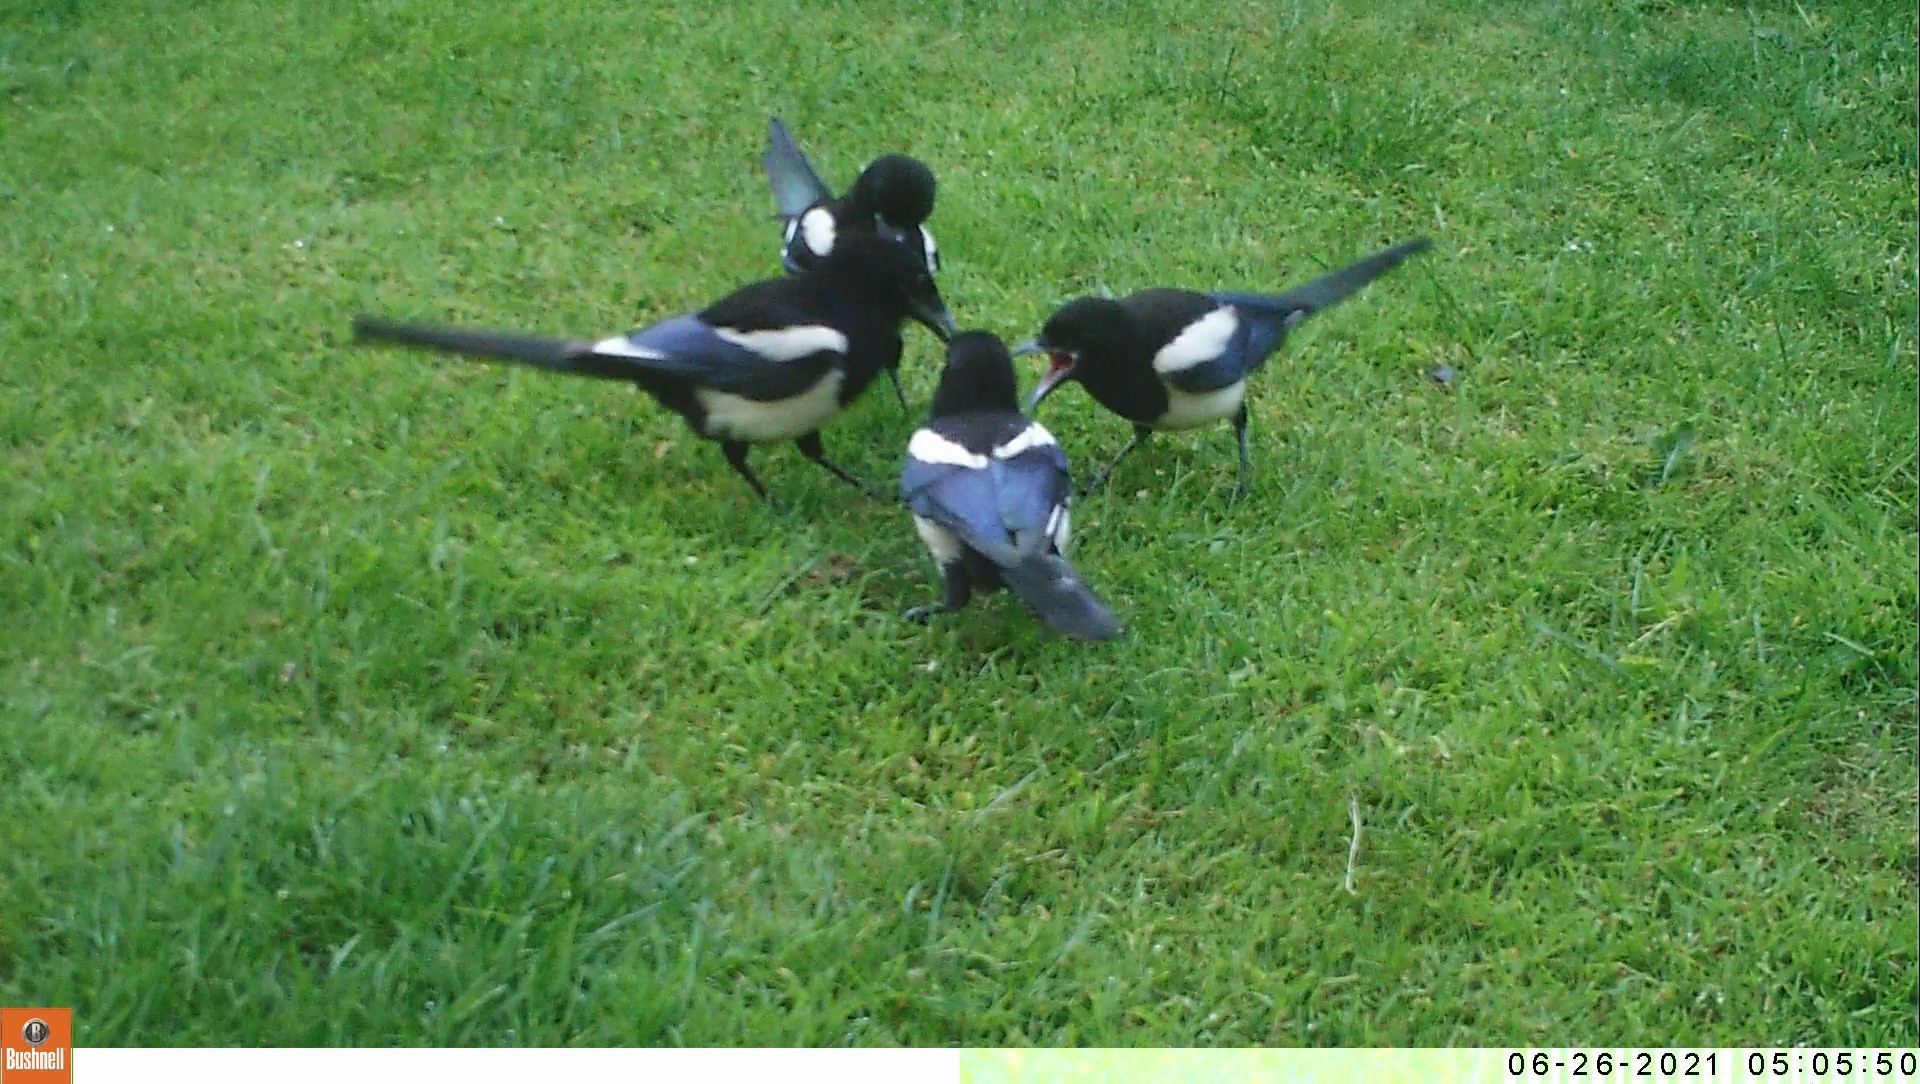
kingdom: Animalia
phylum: Chordata
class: Aves
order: Passeriformes
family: Corvidae
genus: Pica
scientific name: Pica pica
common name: Eurasian magpie
